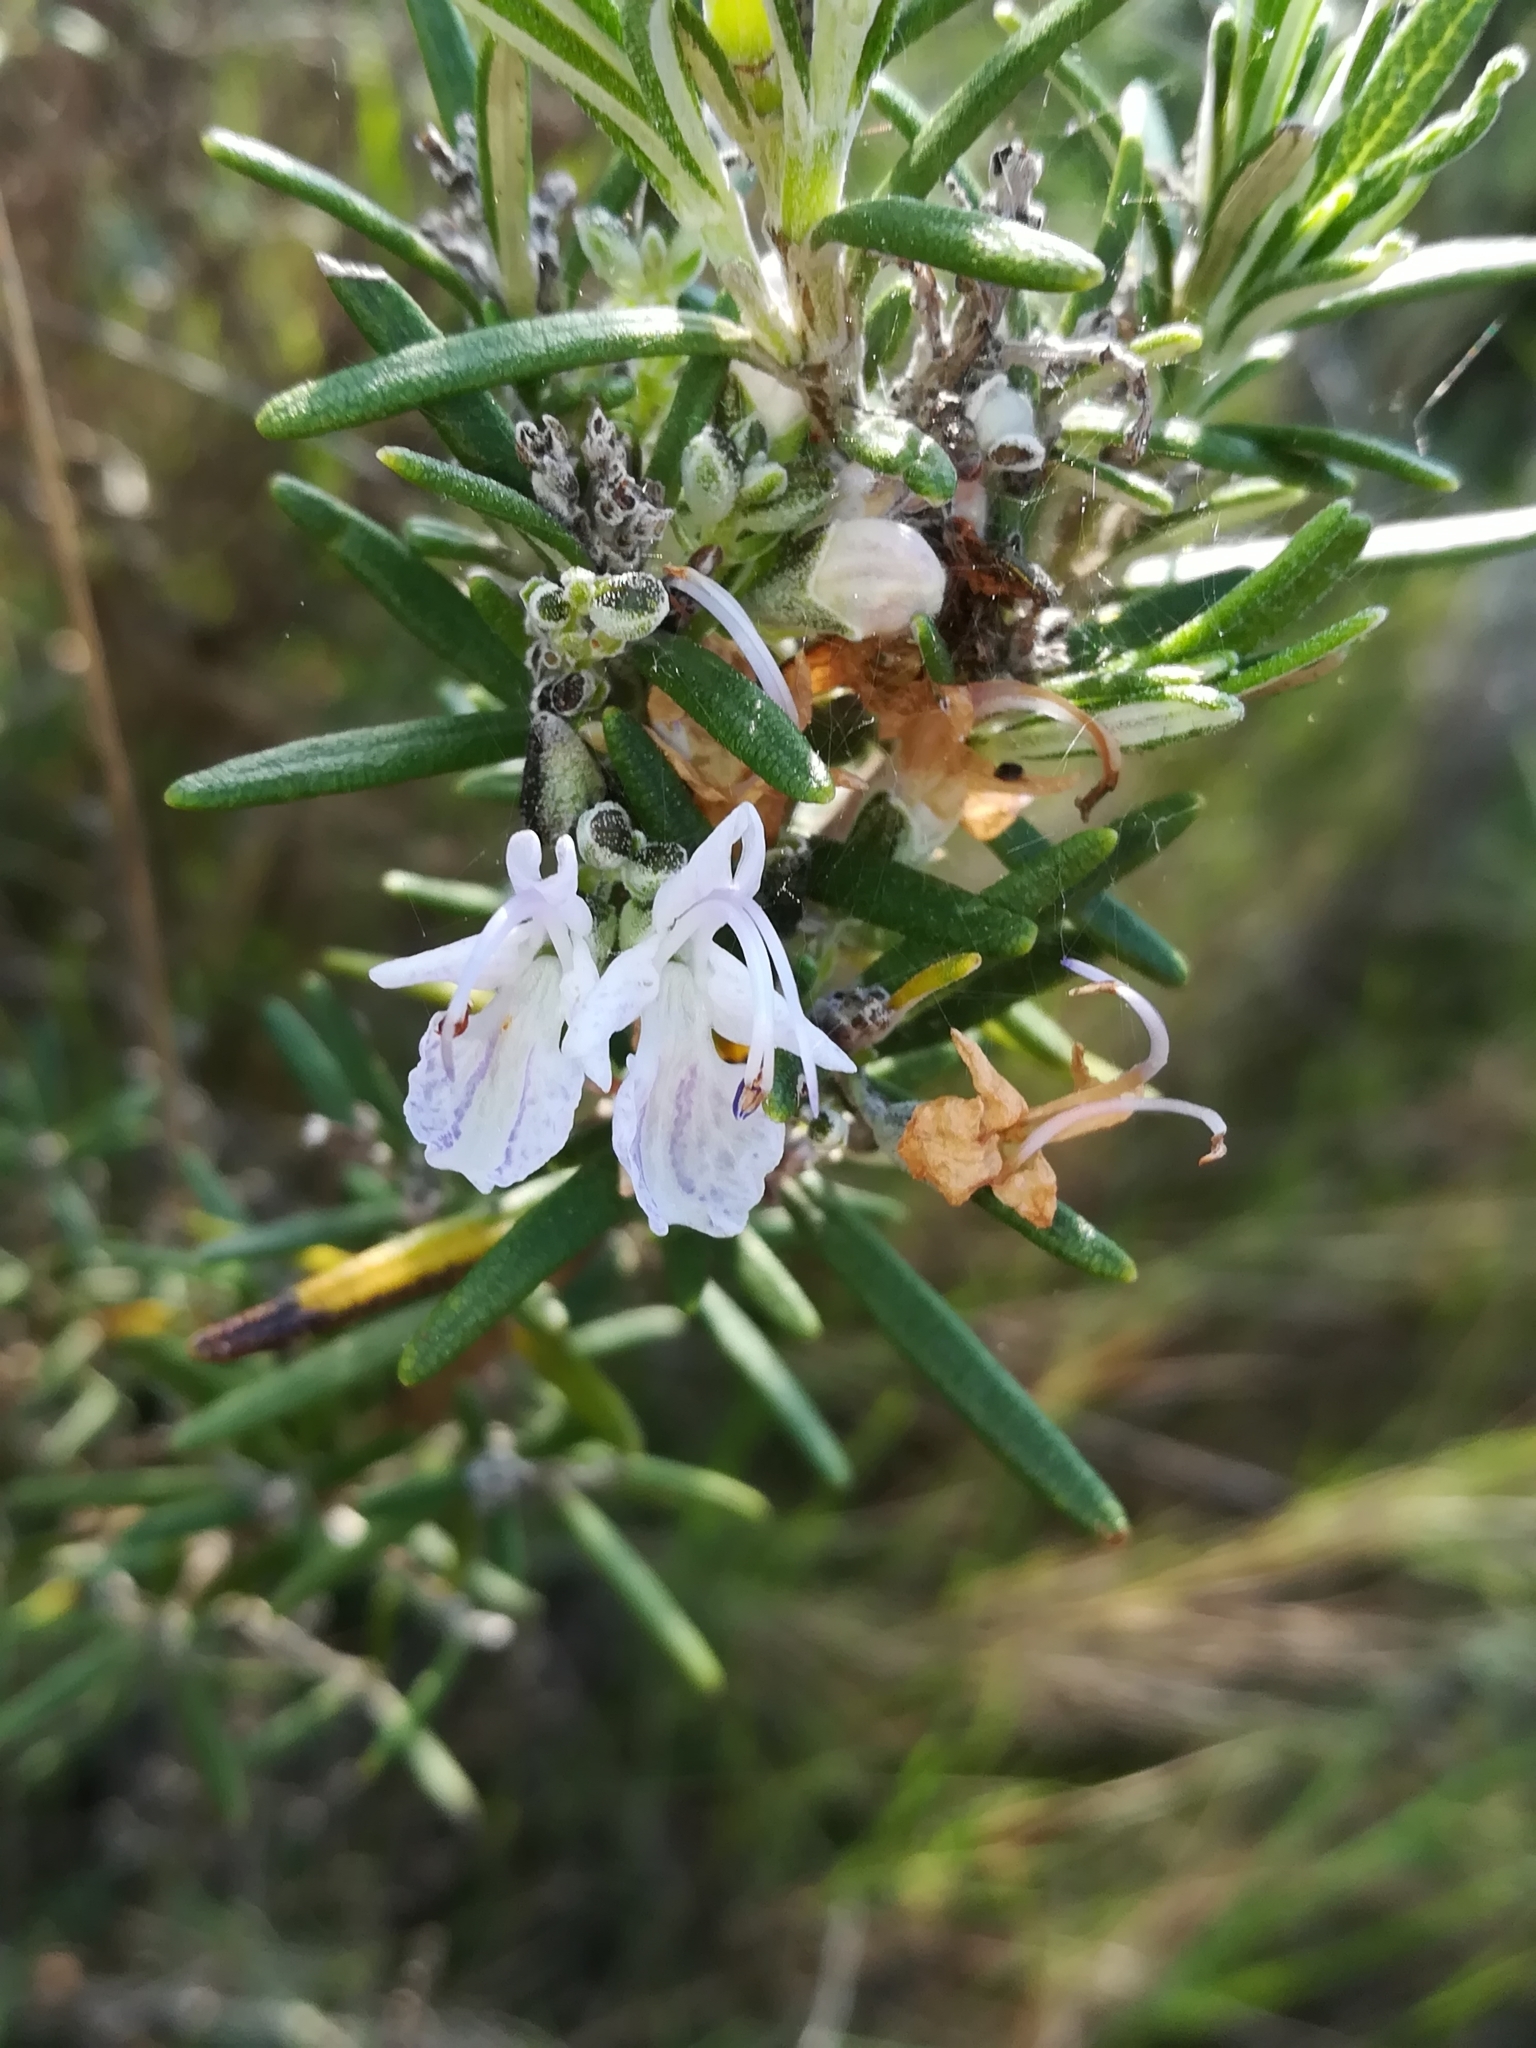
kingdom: Plantae
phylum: Tracheophyta
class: Magnoliopsida
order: Lamiales
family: Lamiaceae
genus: Salvia
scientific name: Salvia rosmarinus
